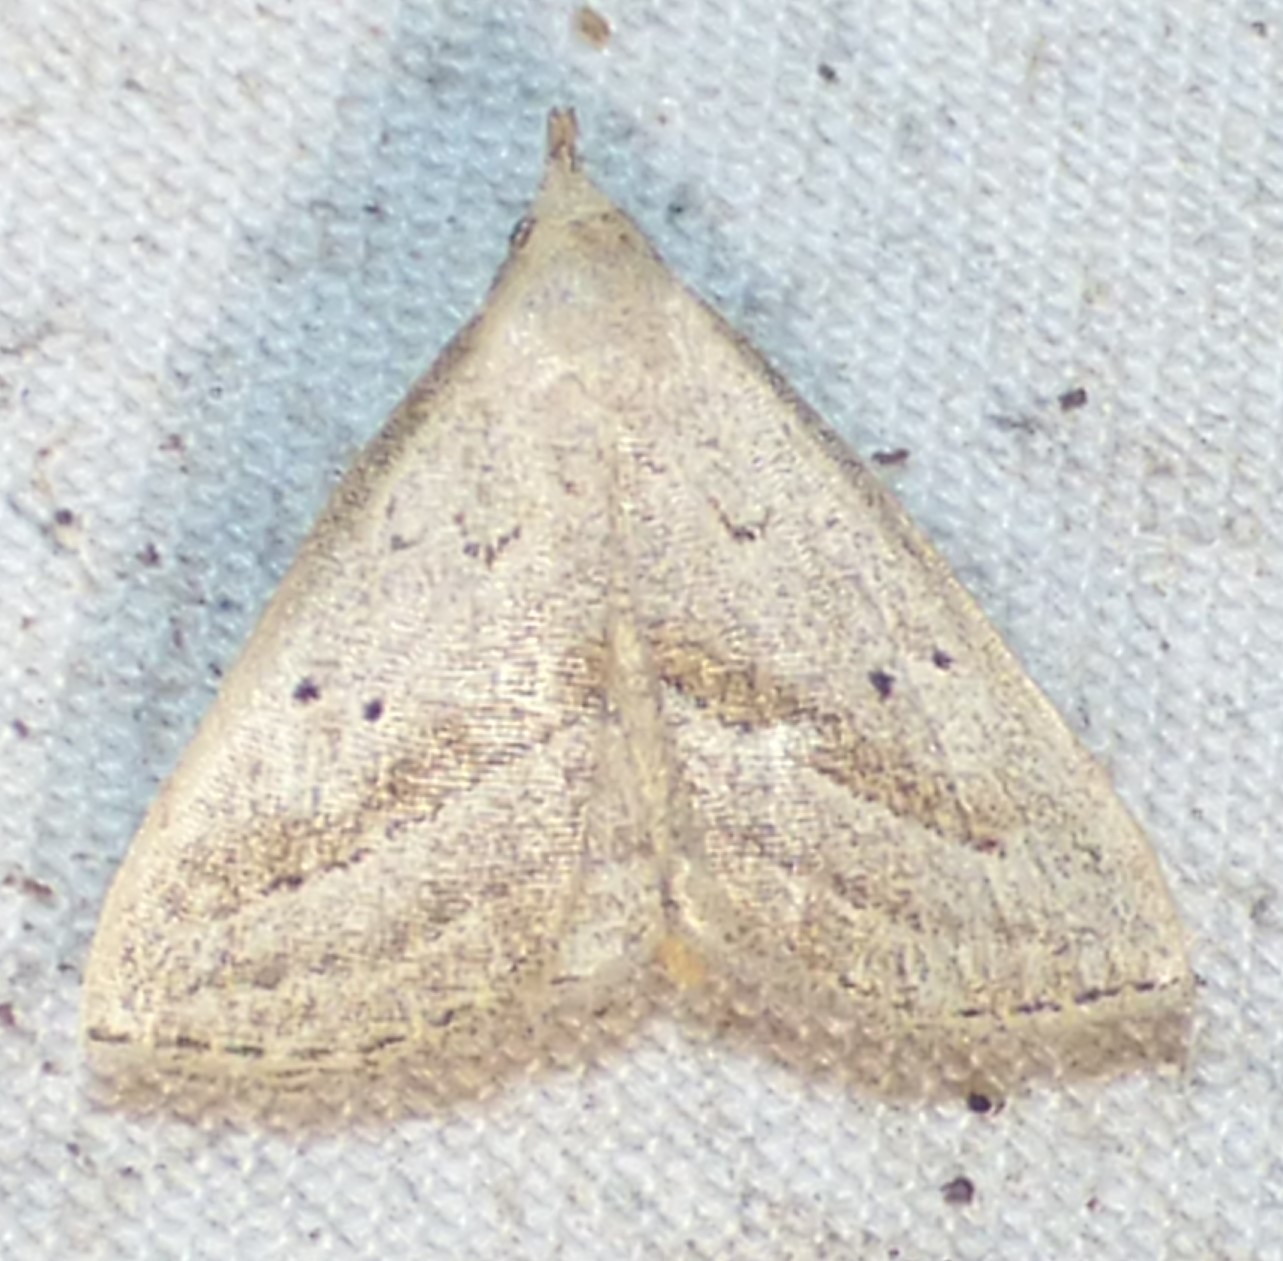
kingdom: Animalia
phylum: Arthropoda
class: Insecta
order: Lepidoptera
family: Erebidae
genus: Macrochilo
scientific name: Macrochilo hypocritalis
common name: Twin-dotted owlet
